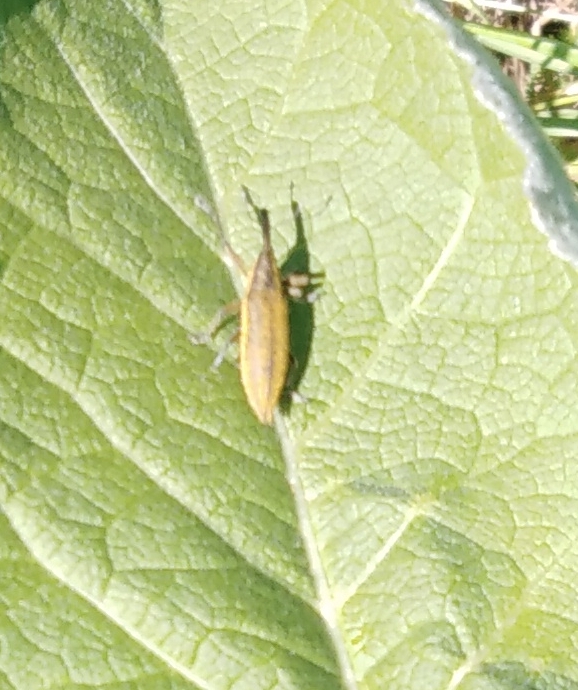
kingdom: Animalia
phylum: Arthropoda
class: Insecta
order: Coleoptera
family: Curculionidae
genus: Lixus
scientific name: Lixus iridis
